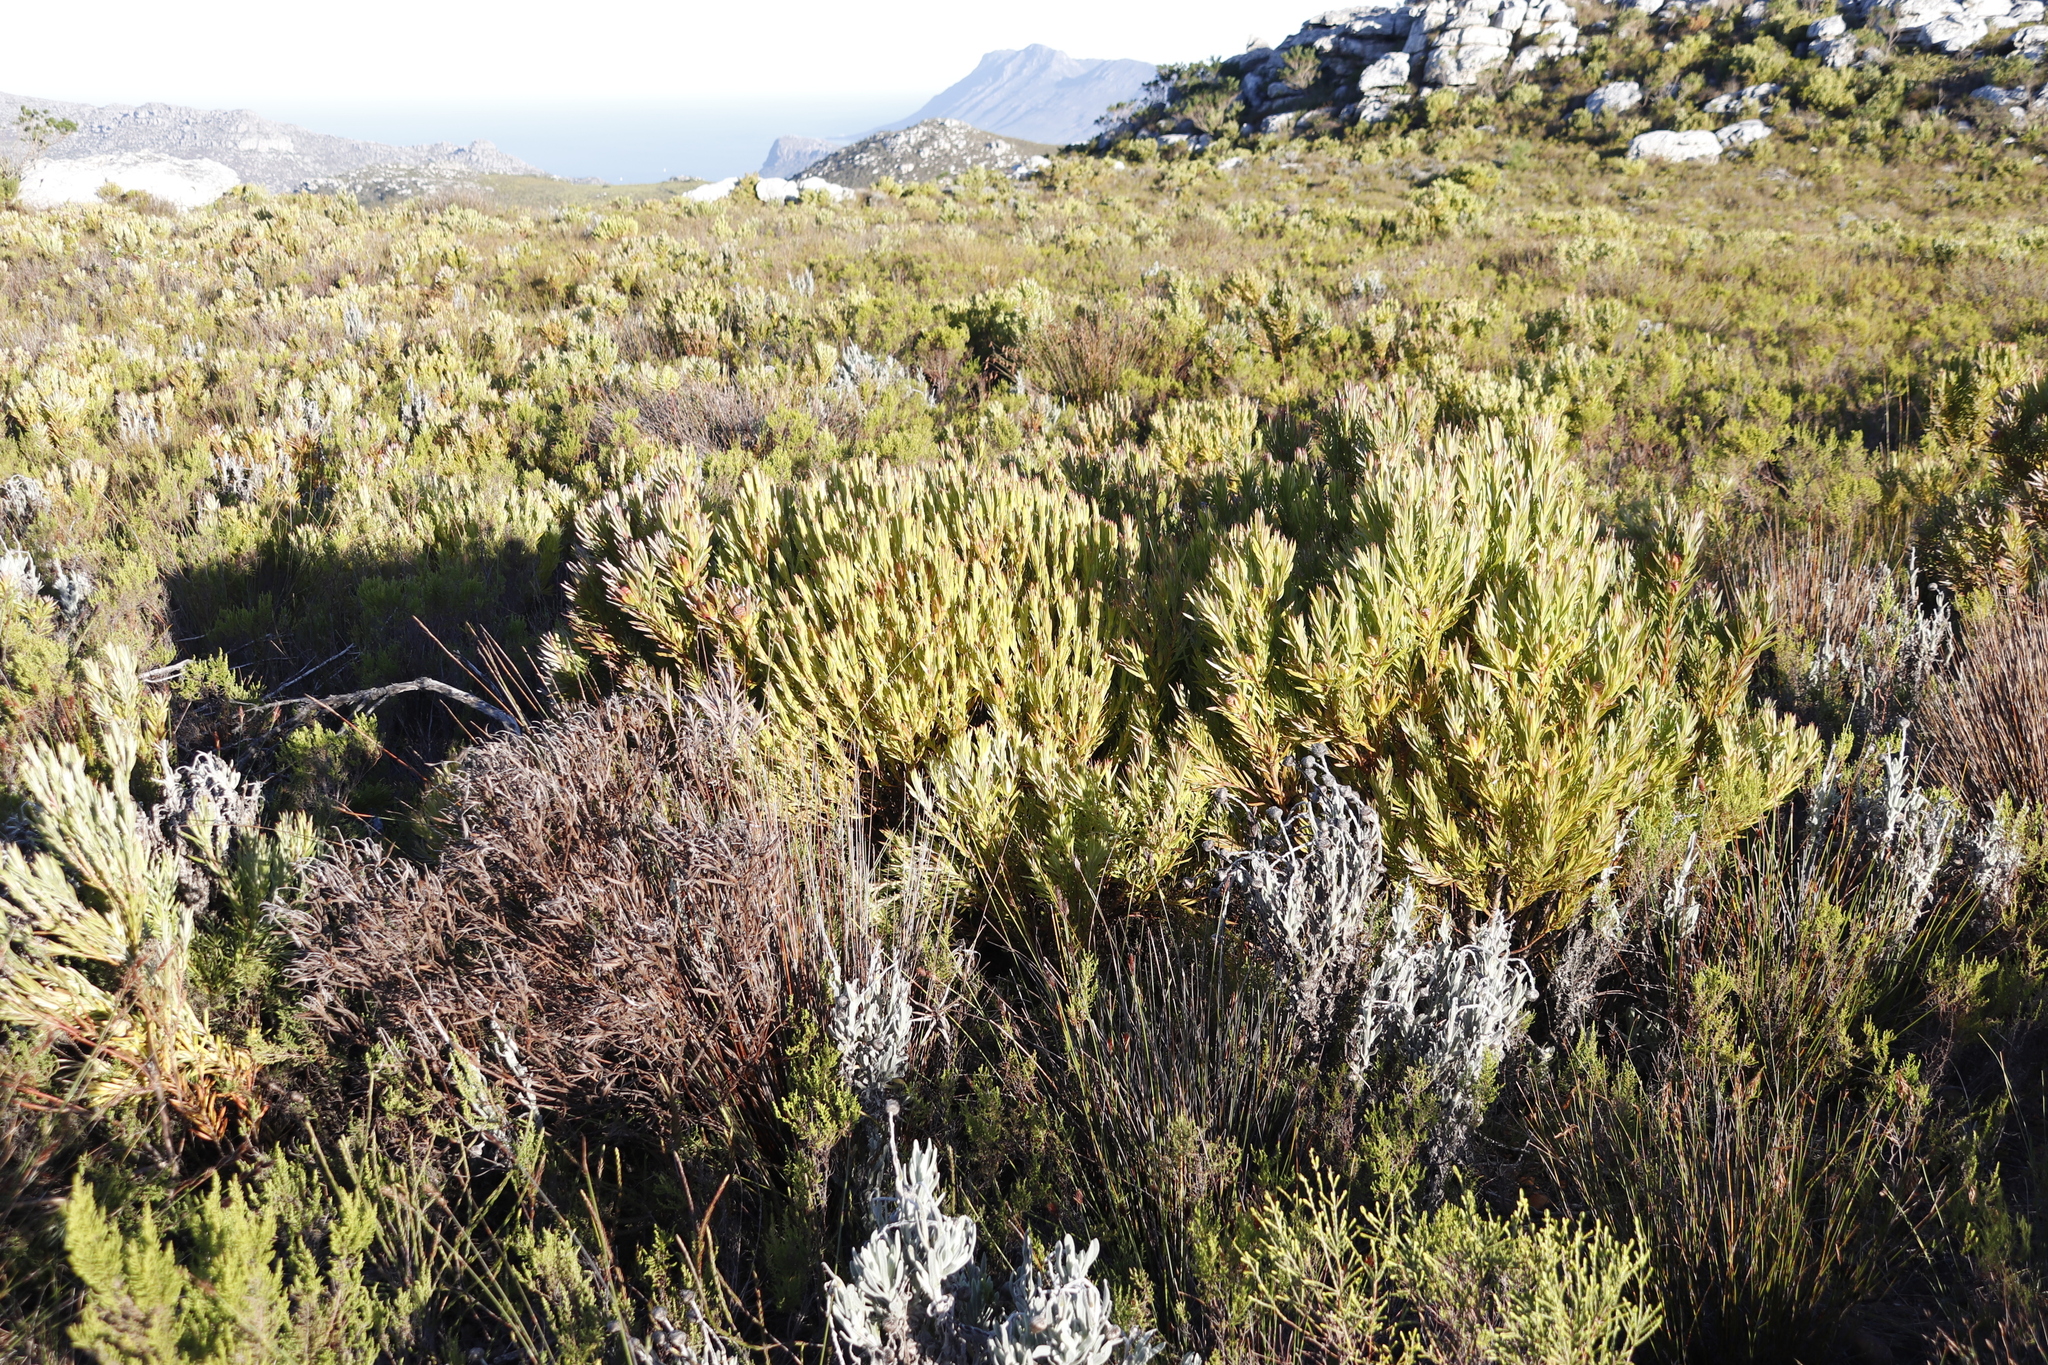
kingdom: Plantae
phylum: Tracheophyta
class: Magnoliopsida
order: Proteales
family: Proteaceae
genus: Leucadendron
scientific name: Leucadendron xanthoconus
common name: Sickle-leaf conebush
